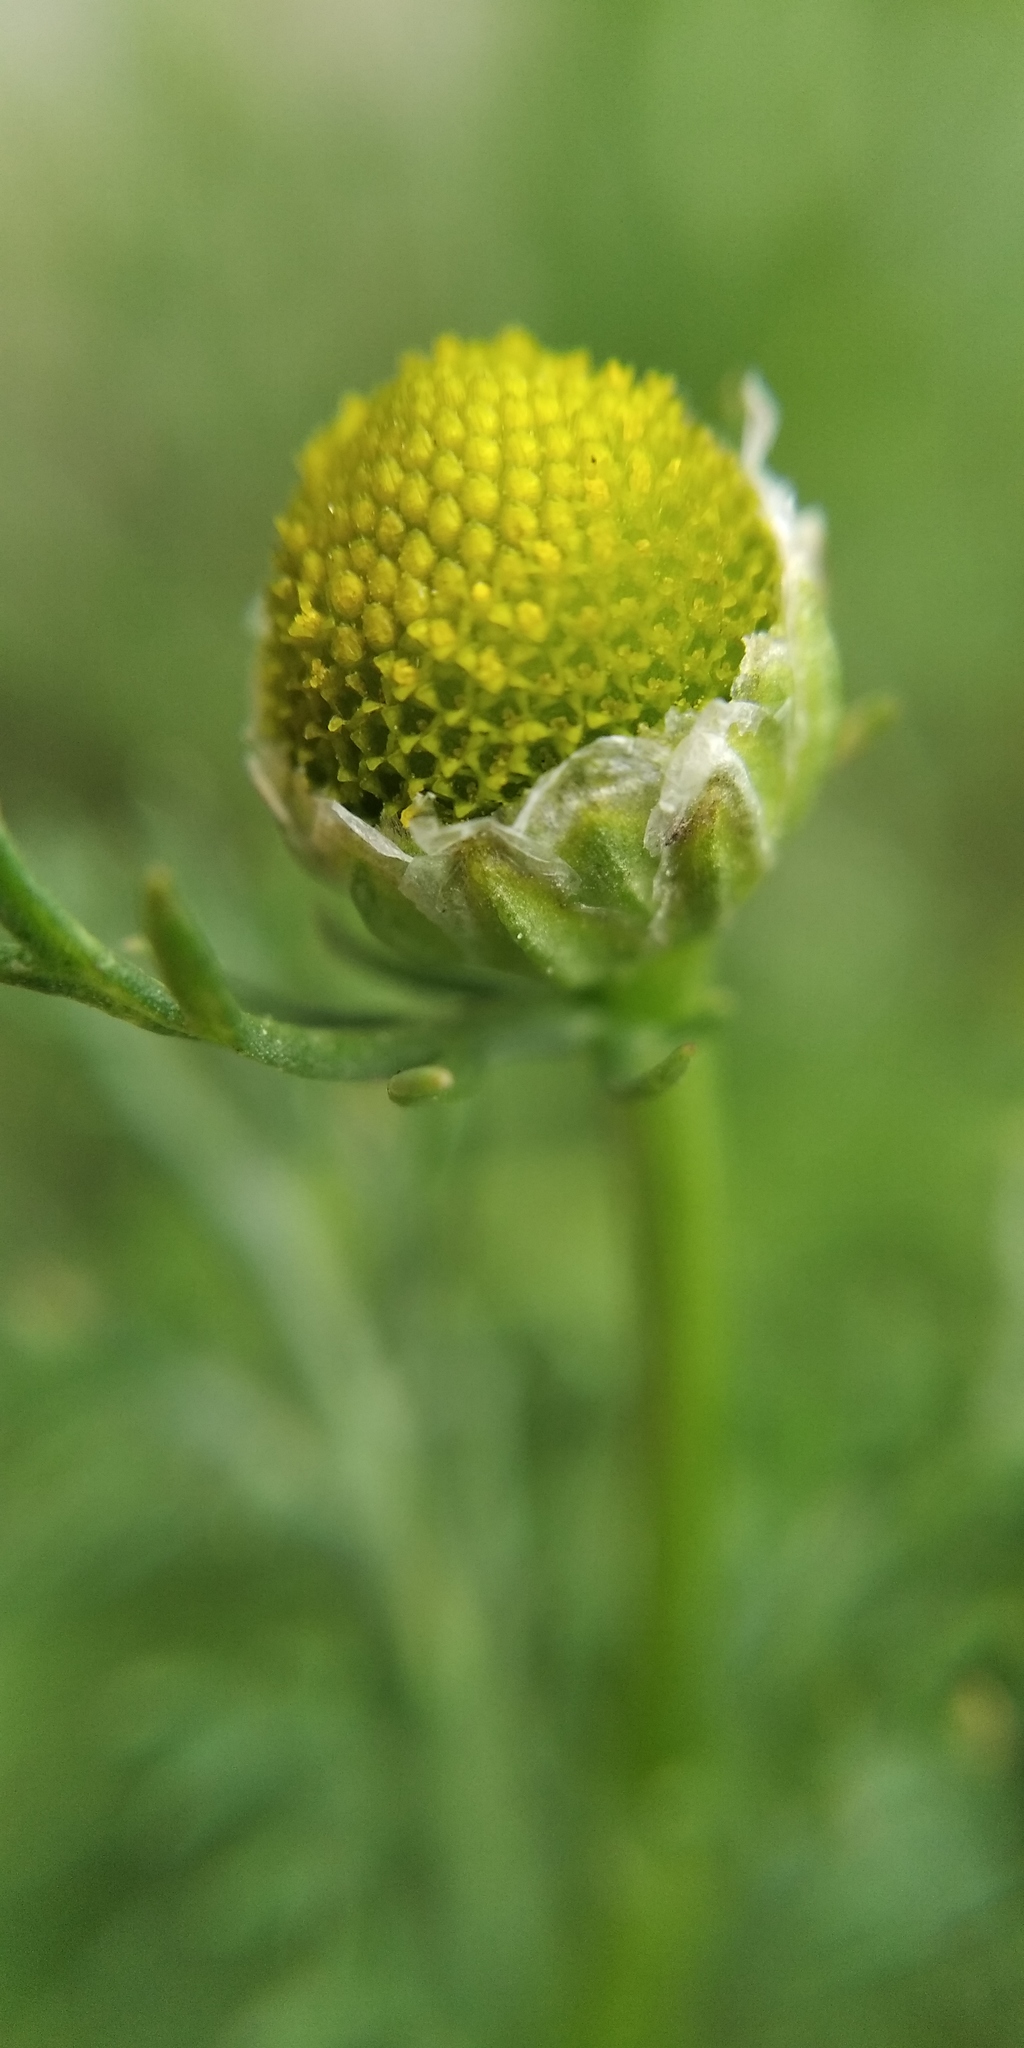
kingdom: Plantae
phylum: Tracheophyta
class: Magnoliopsida
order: Asterales
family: Asteraceae
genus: Matricaria
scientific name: Matricaria discoidea
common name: Disc mayweed
